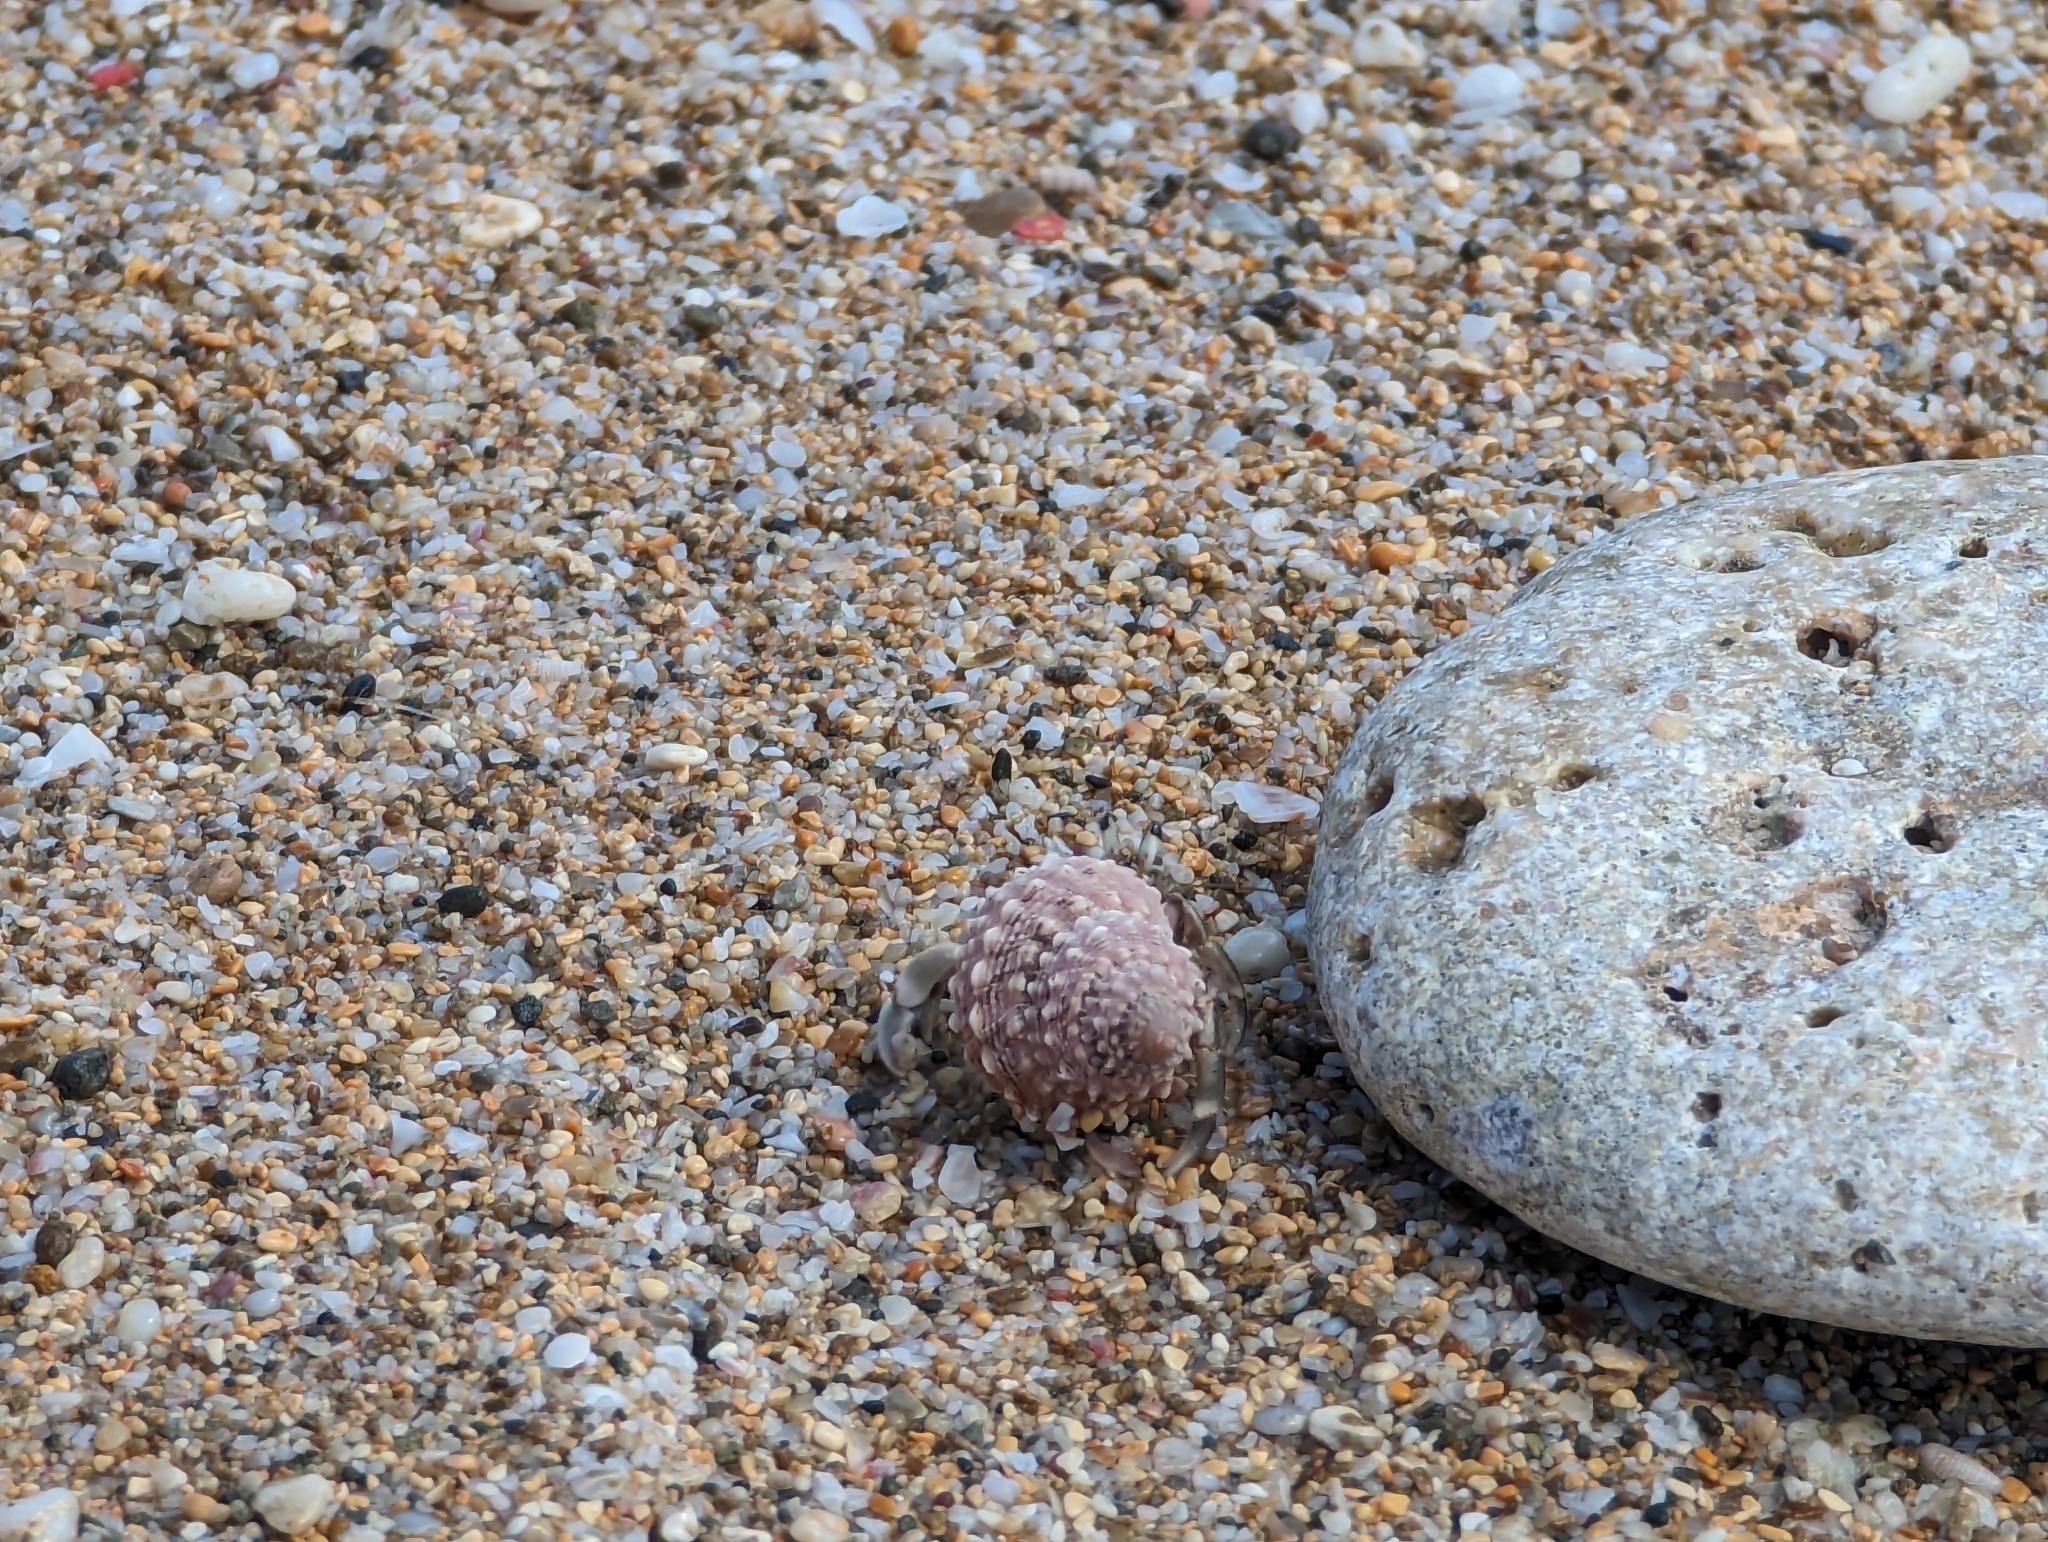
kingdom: Animalia
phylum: Arthropoda
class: Malacostraca
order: Decapoda
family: Coenobitidae
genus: Coenobita
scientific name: Coenobita rugosus
